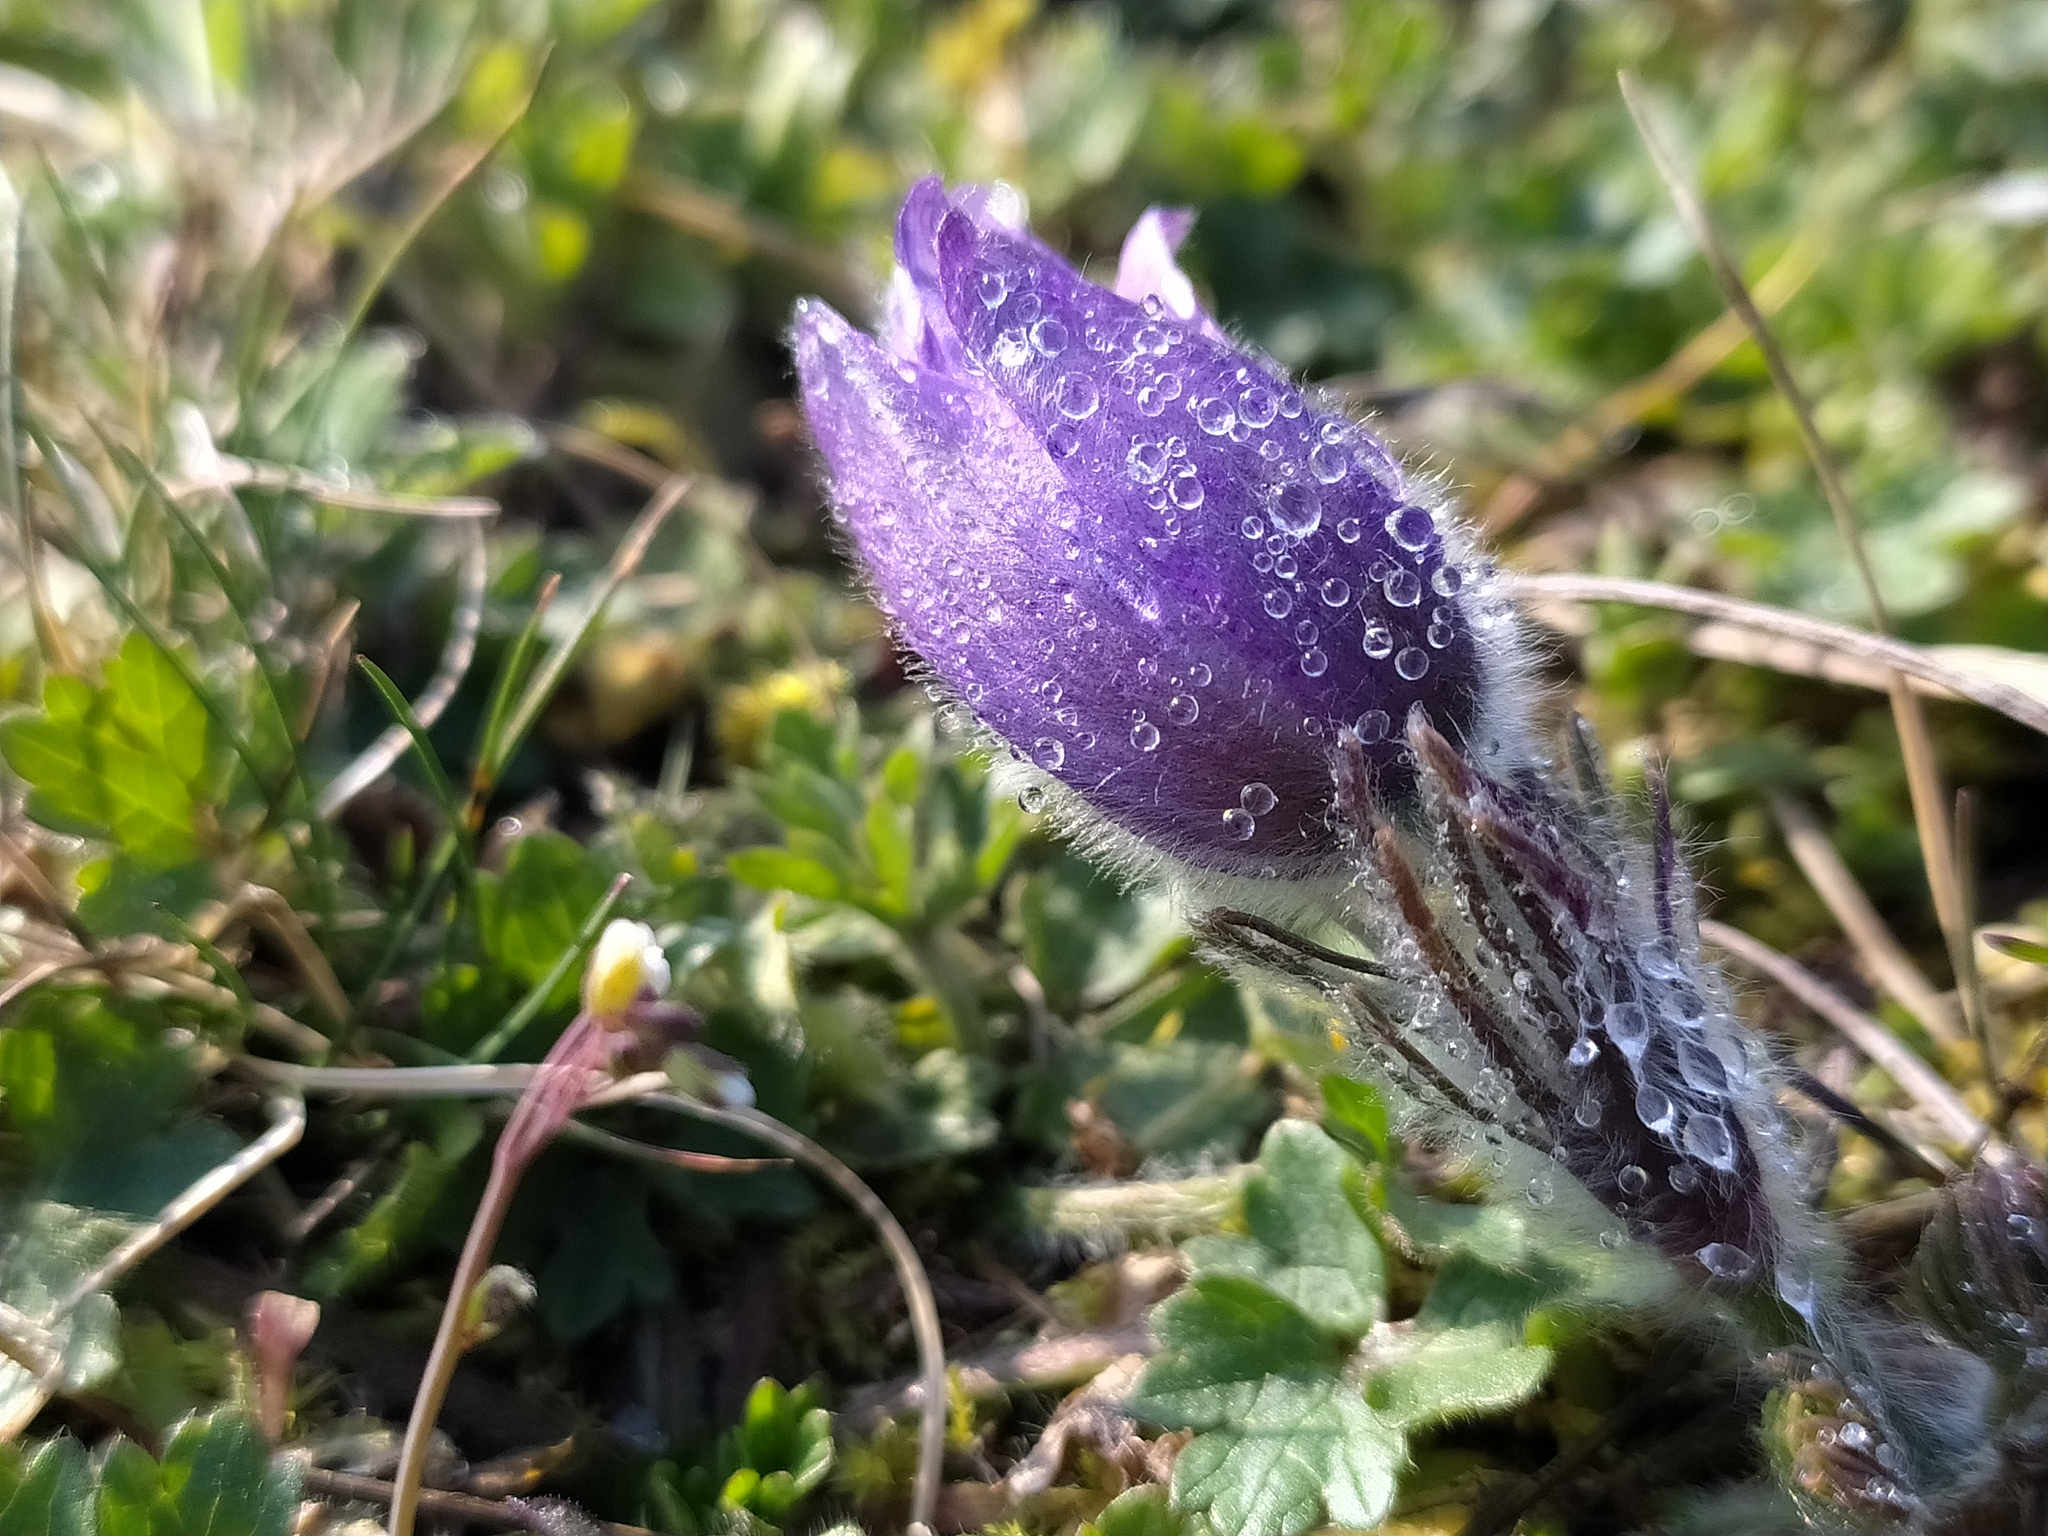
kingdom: Plantae
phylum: Tracheophyta
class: Magnoliopsida
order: Ranunculales
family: Ranunculaceae
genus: Pulsatilla
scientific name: Pulsatilla vulgaris
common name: Pasqueflower
